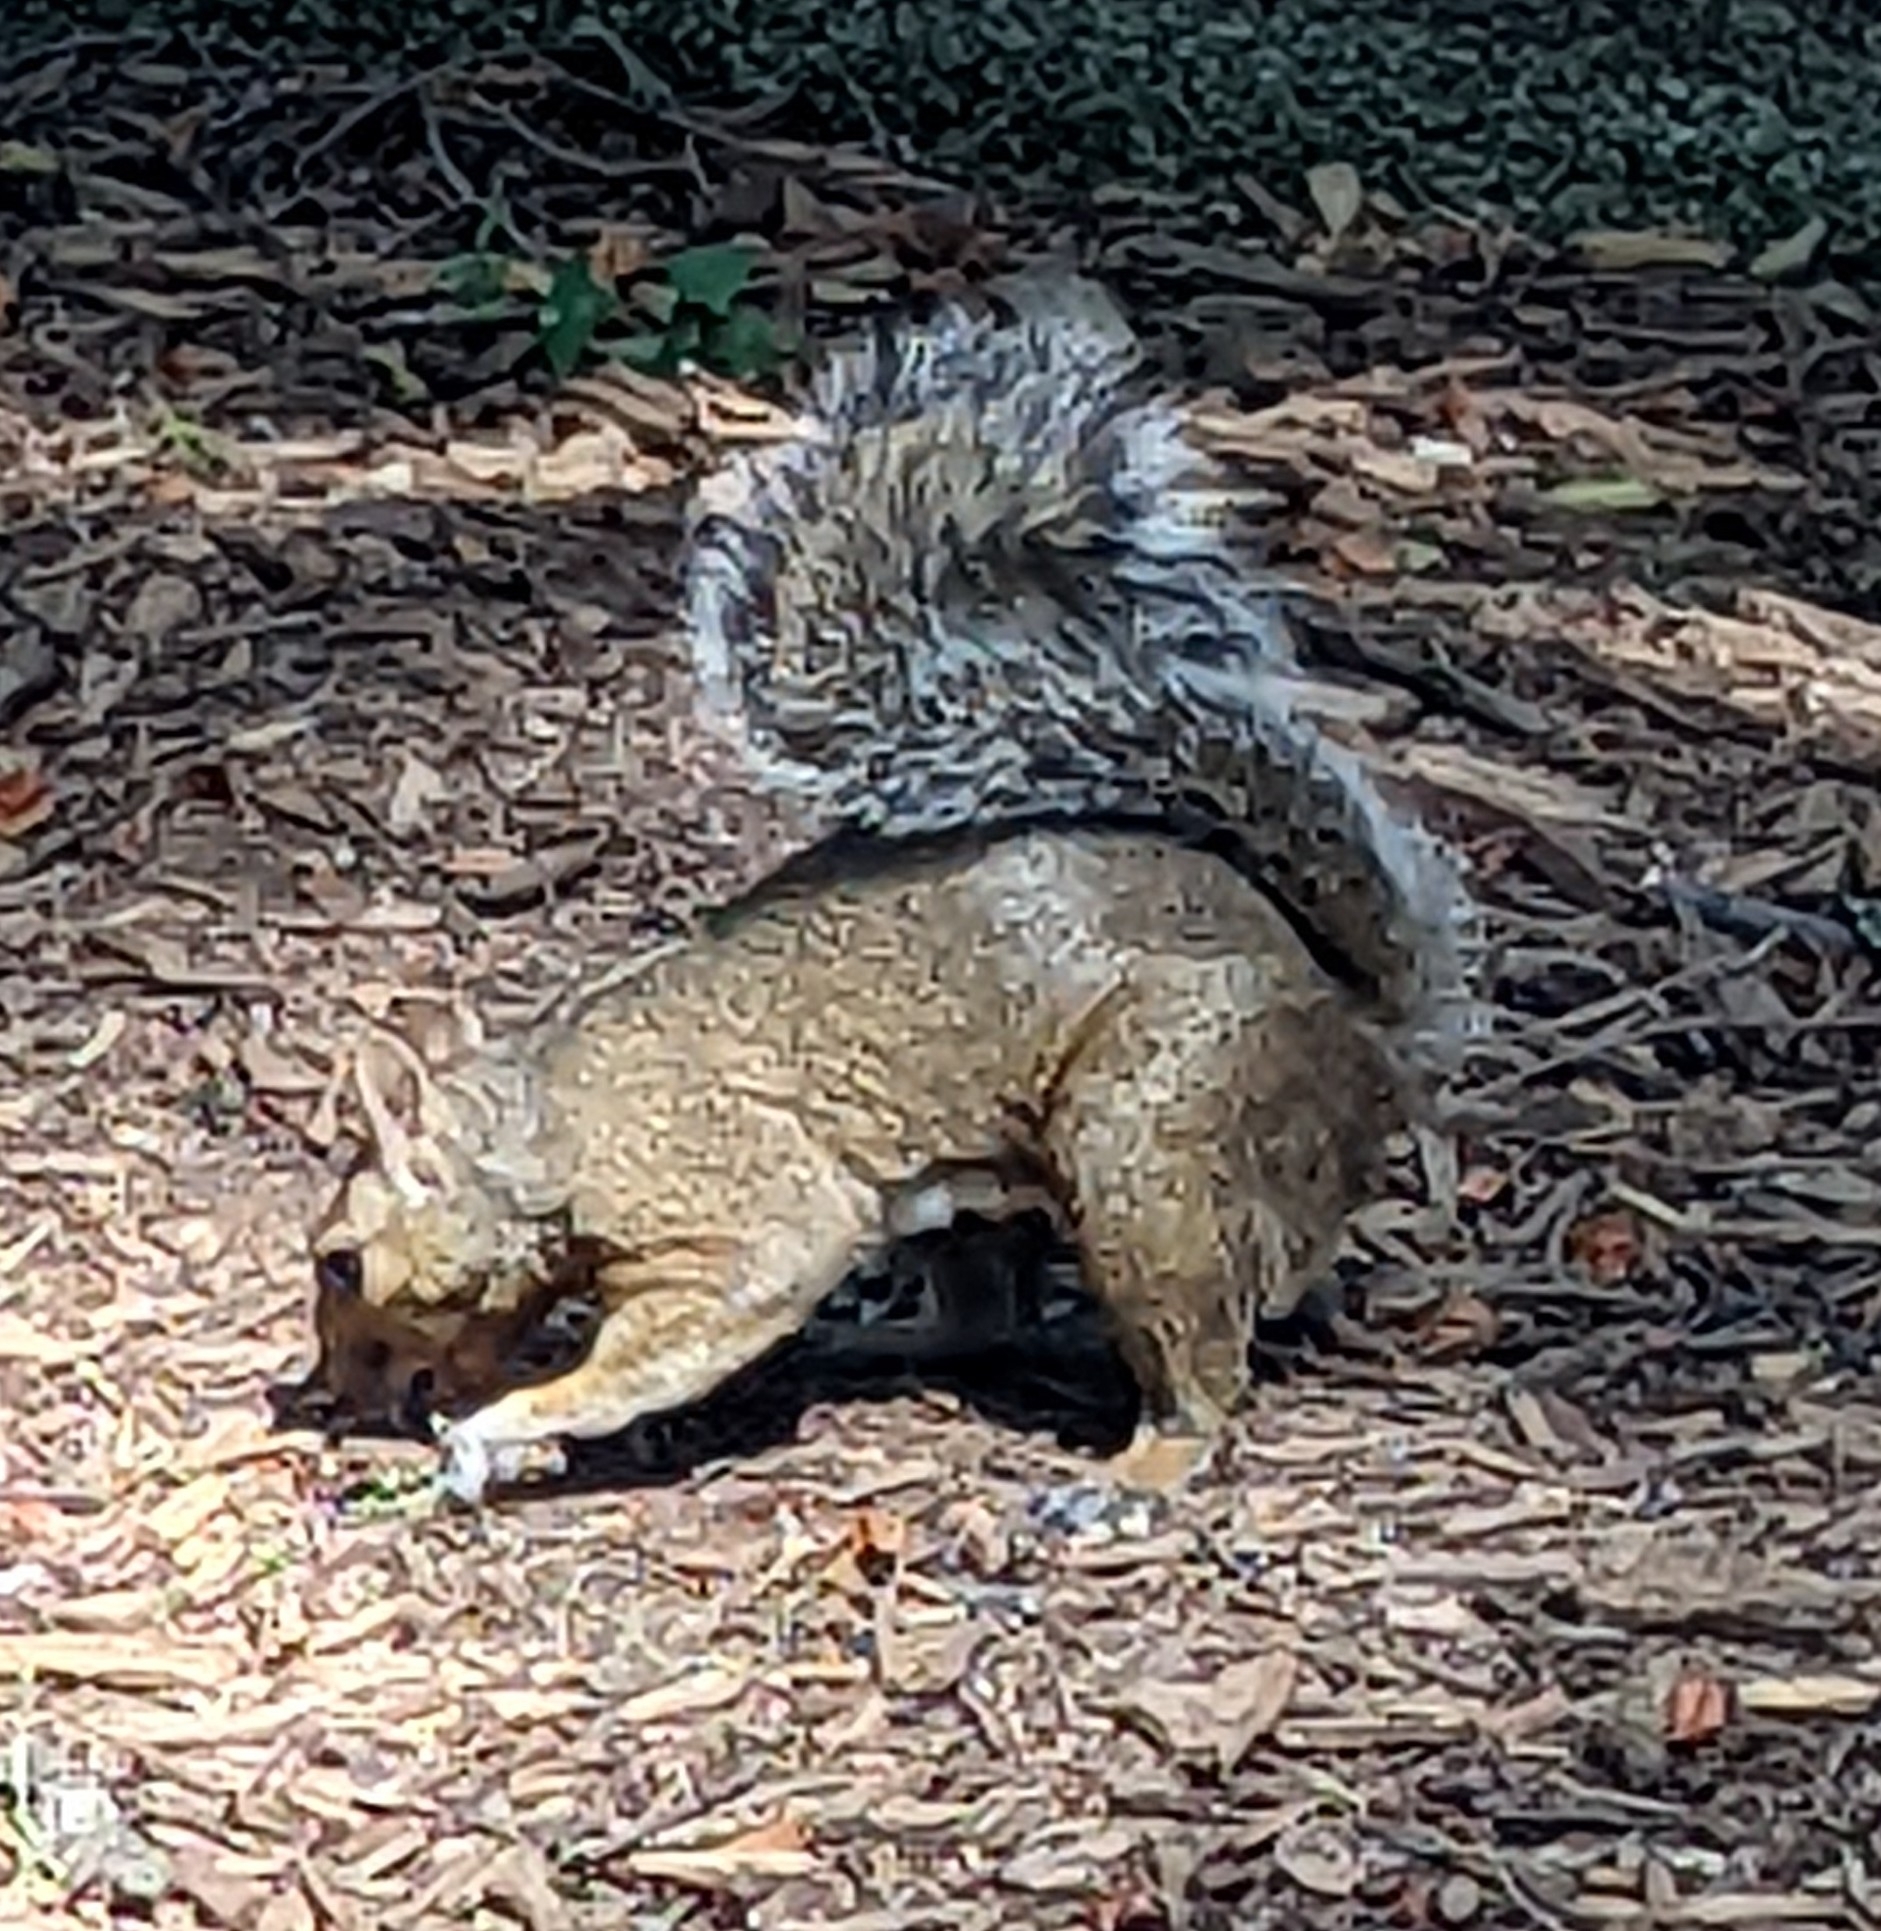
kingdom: Animalia
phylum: Chordata
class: Mammalia
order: Rodentia
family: Sciuridae
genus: Sciurus
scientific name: Sciurus carolinensis
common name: Eastern gray squirrel
